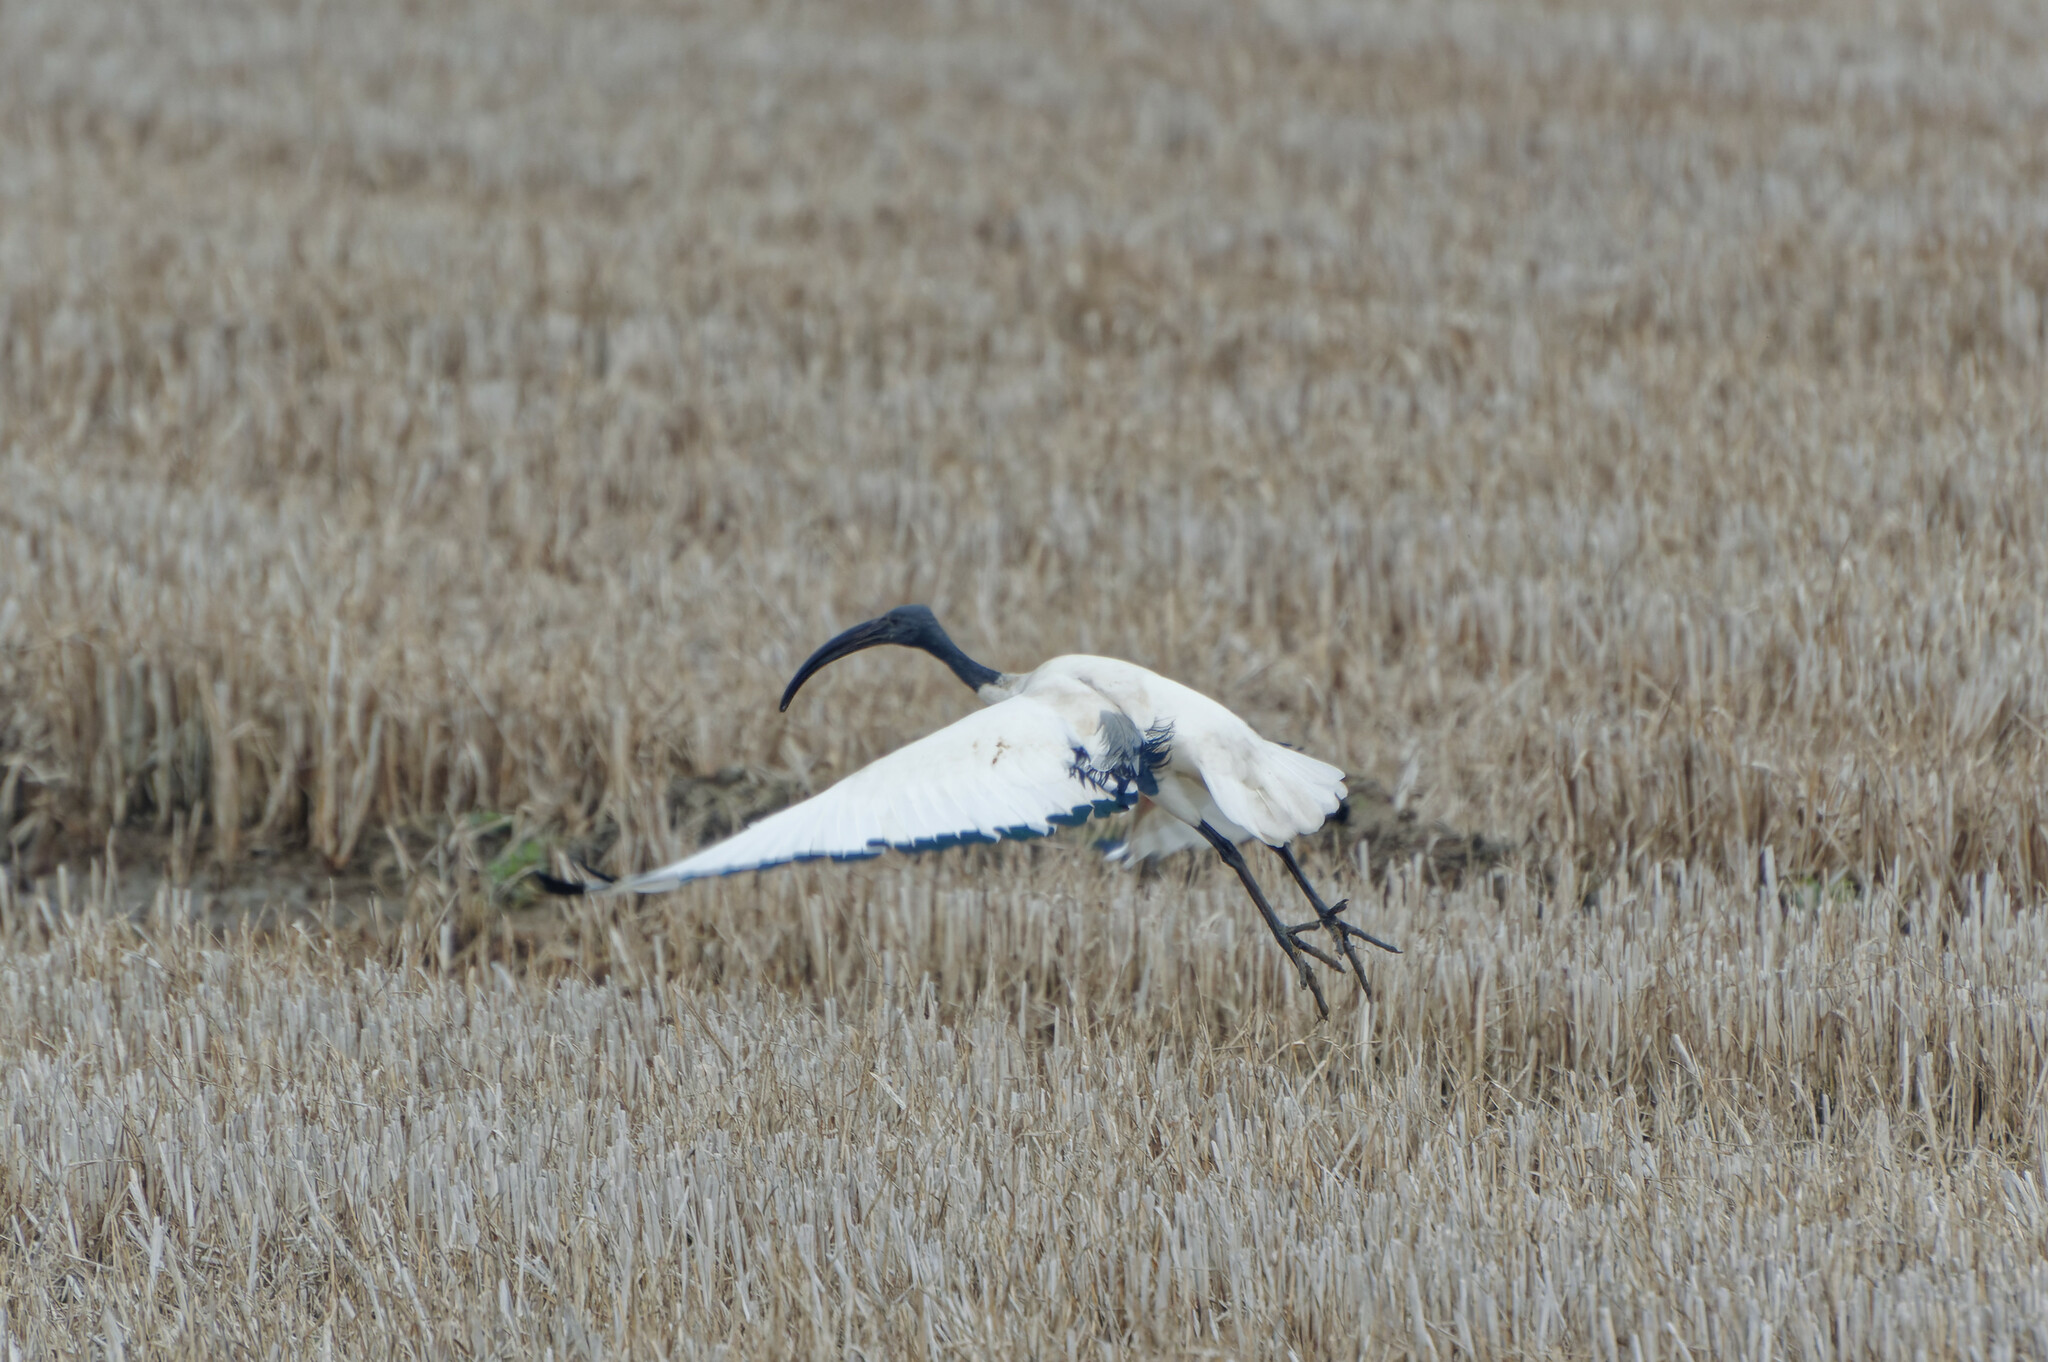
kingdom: Animalia
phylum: Chordata
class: Aves
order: Pelecaniformes
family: Threskiornithidae
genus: Threskiornis
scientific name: Threskiornis aethiopicus
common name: Sacred ibis
